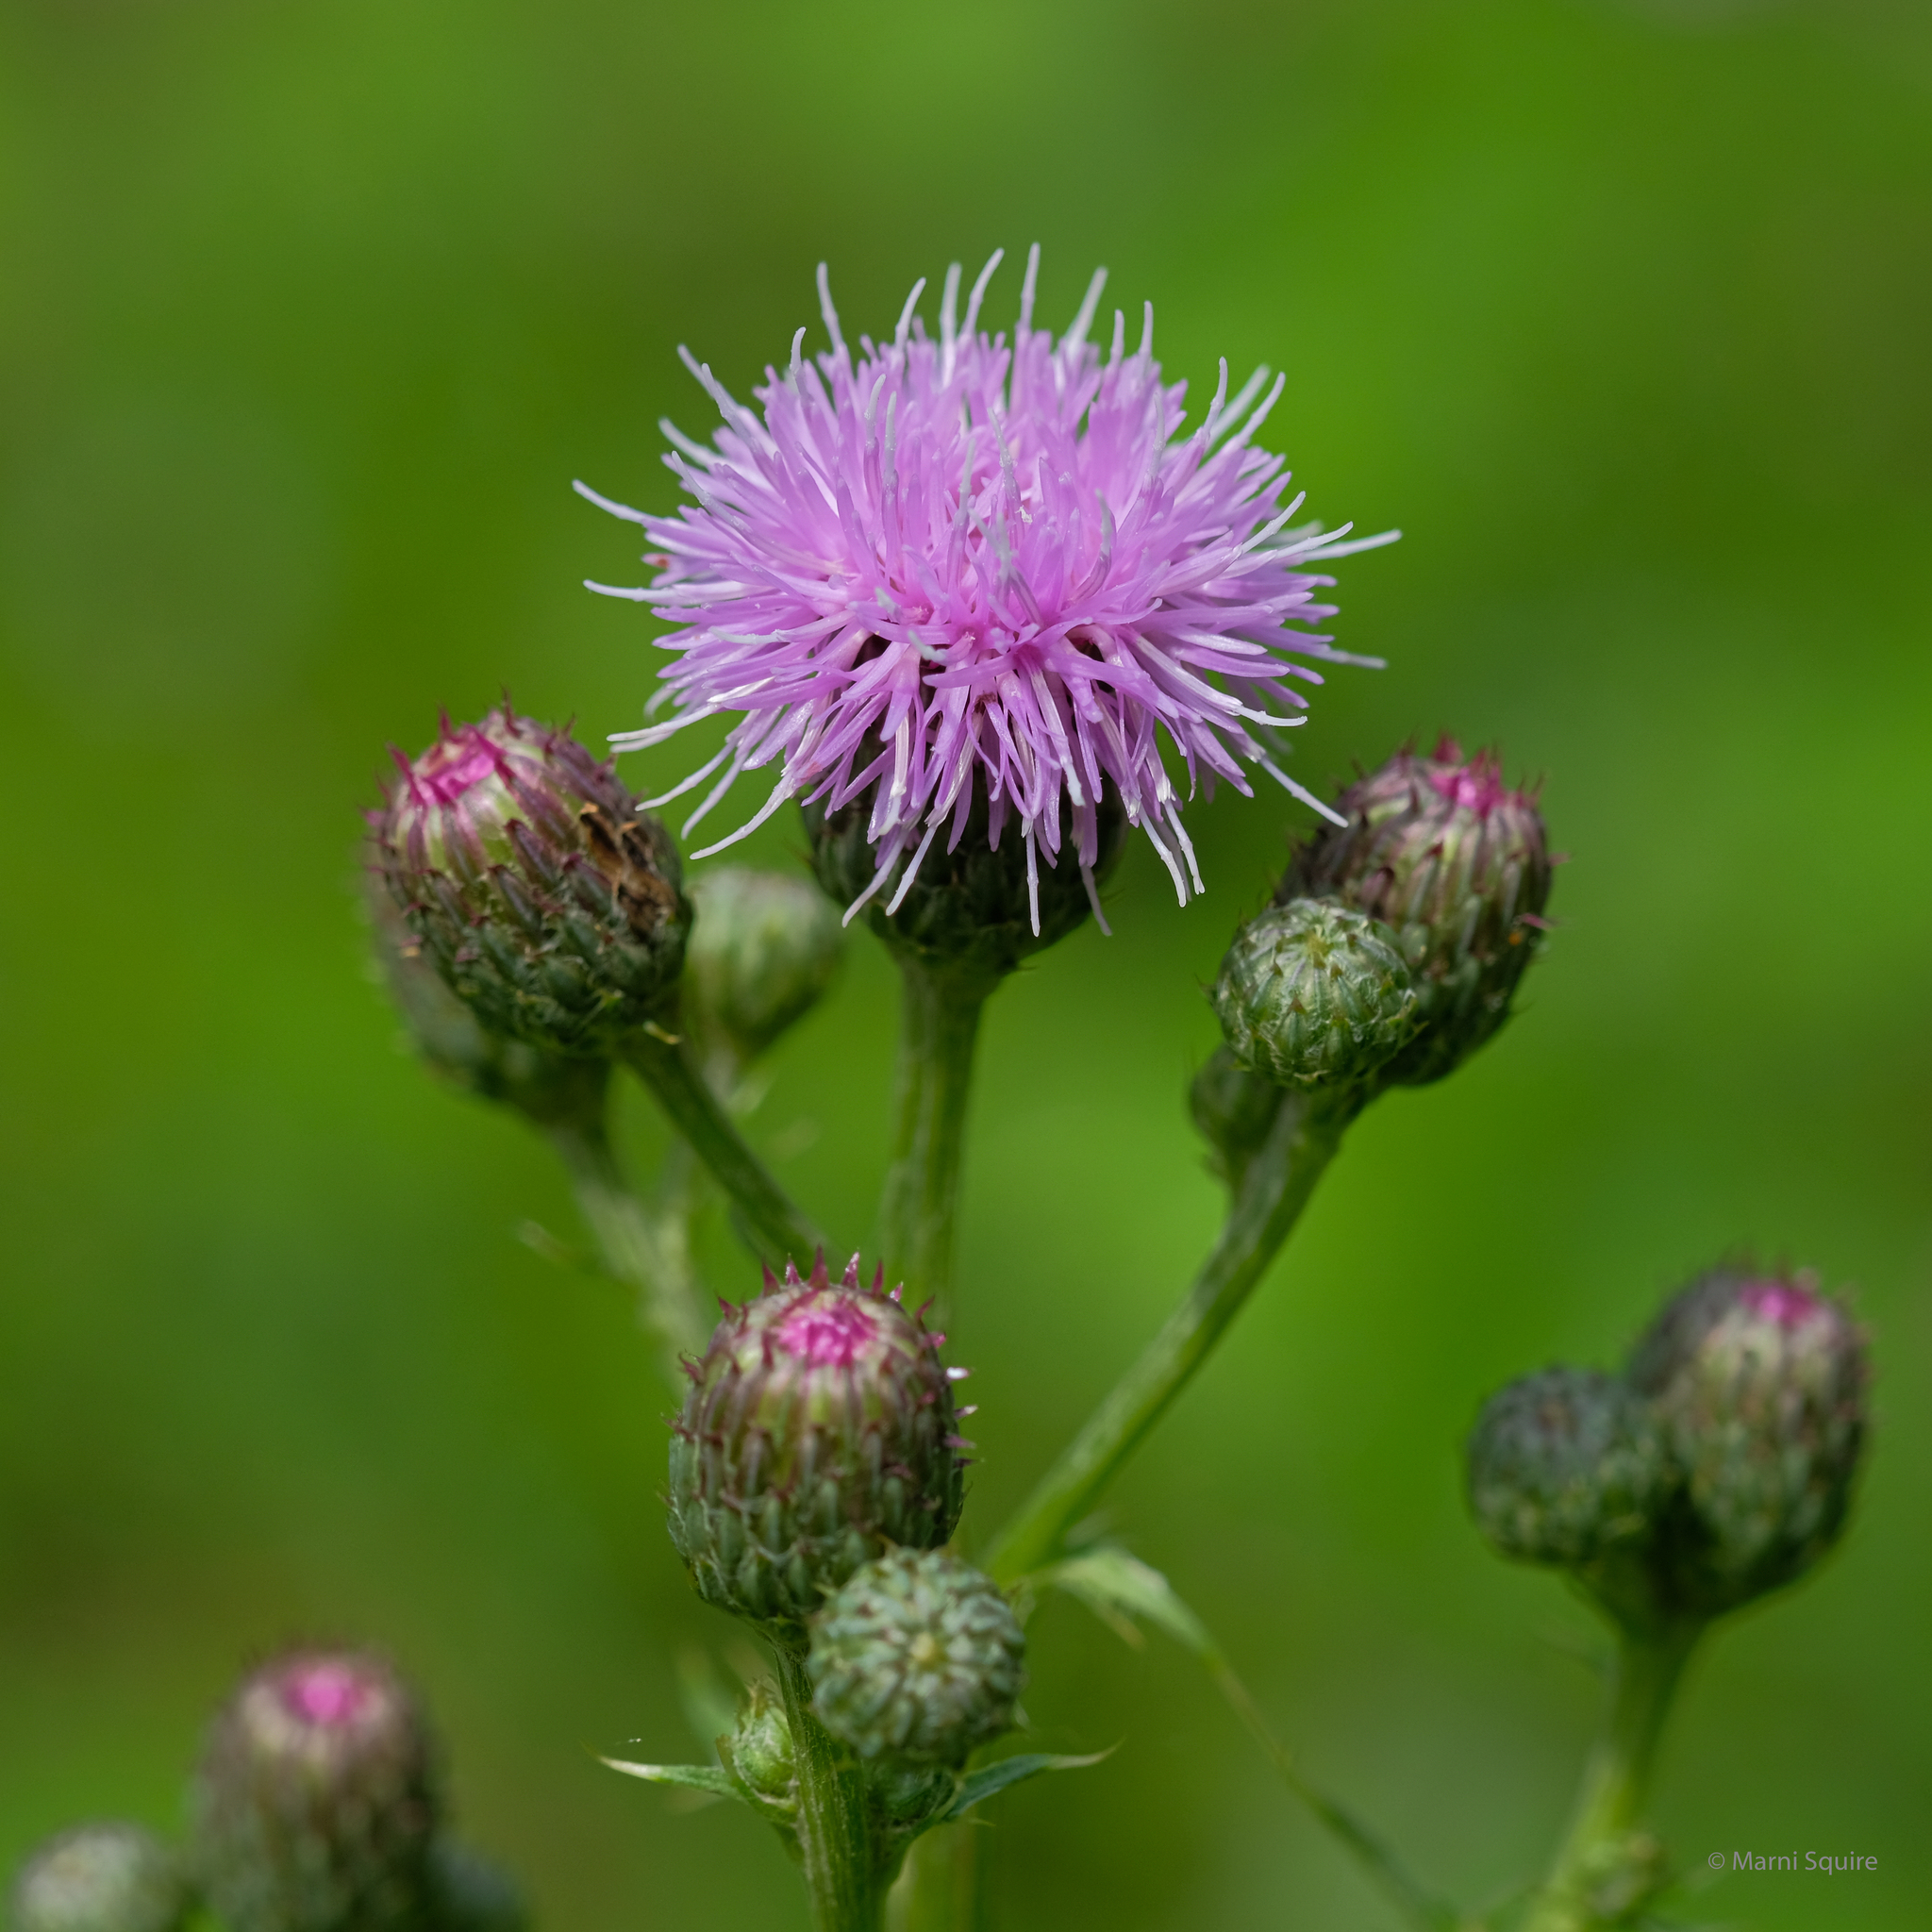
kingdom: Plantae
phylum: Tracheophyta
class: Magnoliopsida
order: Asterales
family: Asteraceae
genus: Cirsium
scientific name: Cirsium arvense
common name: Creeping thistle
